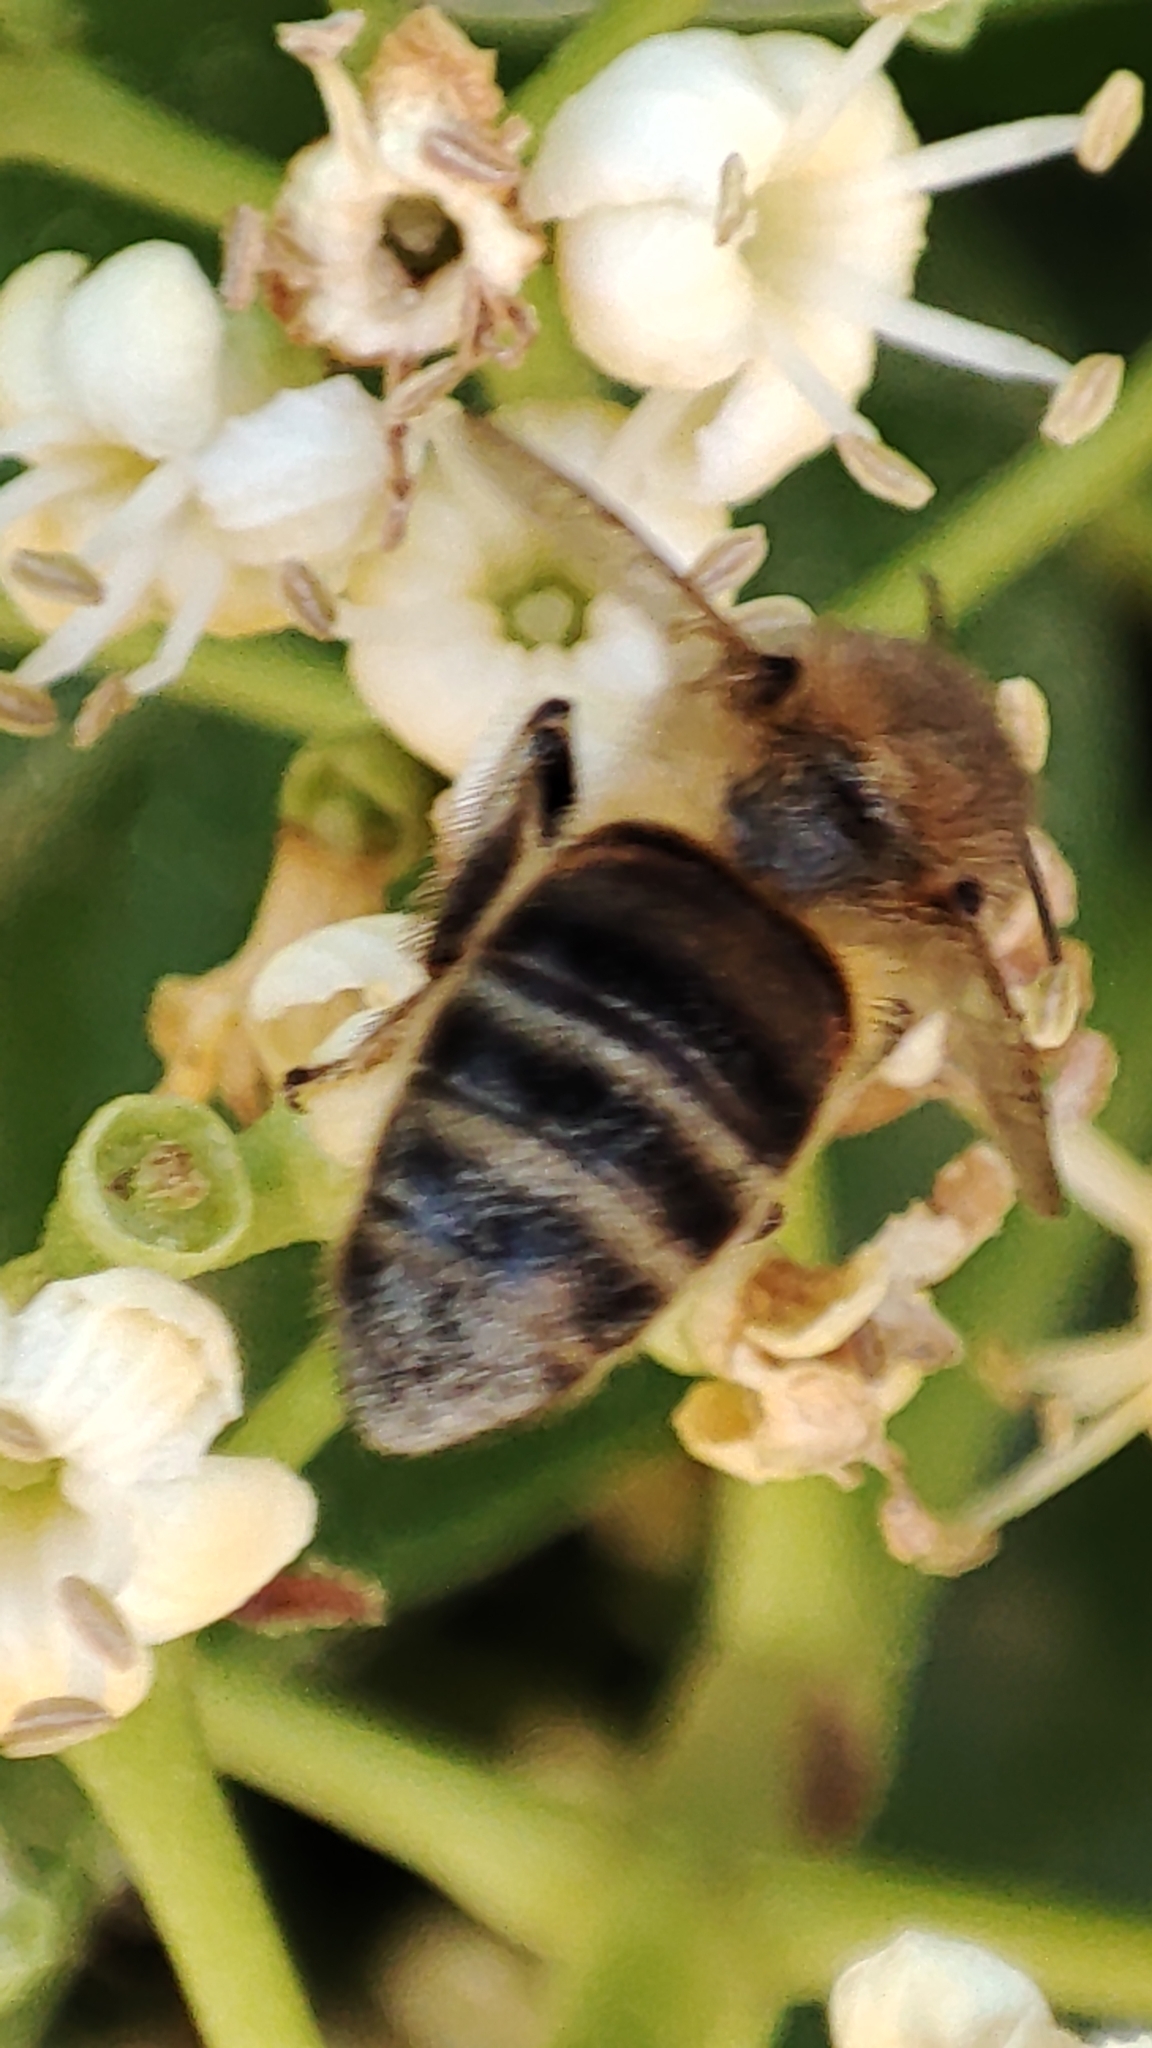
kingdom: Animalia
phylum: Arthropoda
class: Insecta
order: Hymenoptera
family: Apidae
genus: Apis
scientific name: Apis mellifera
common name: Honey bee
